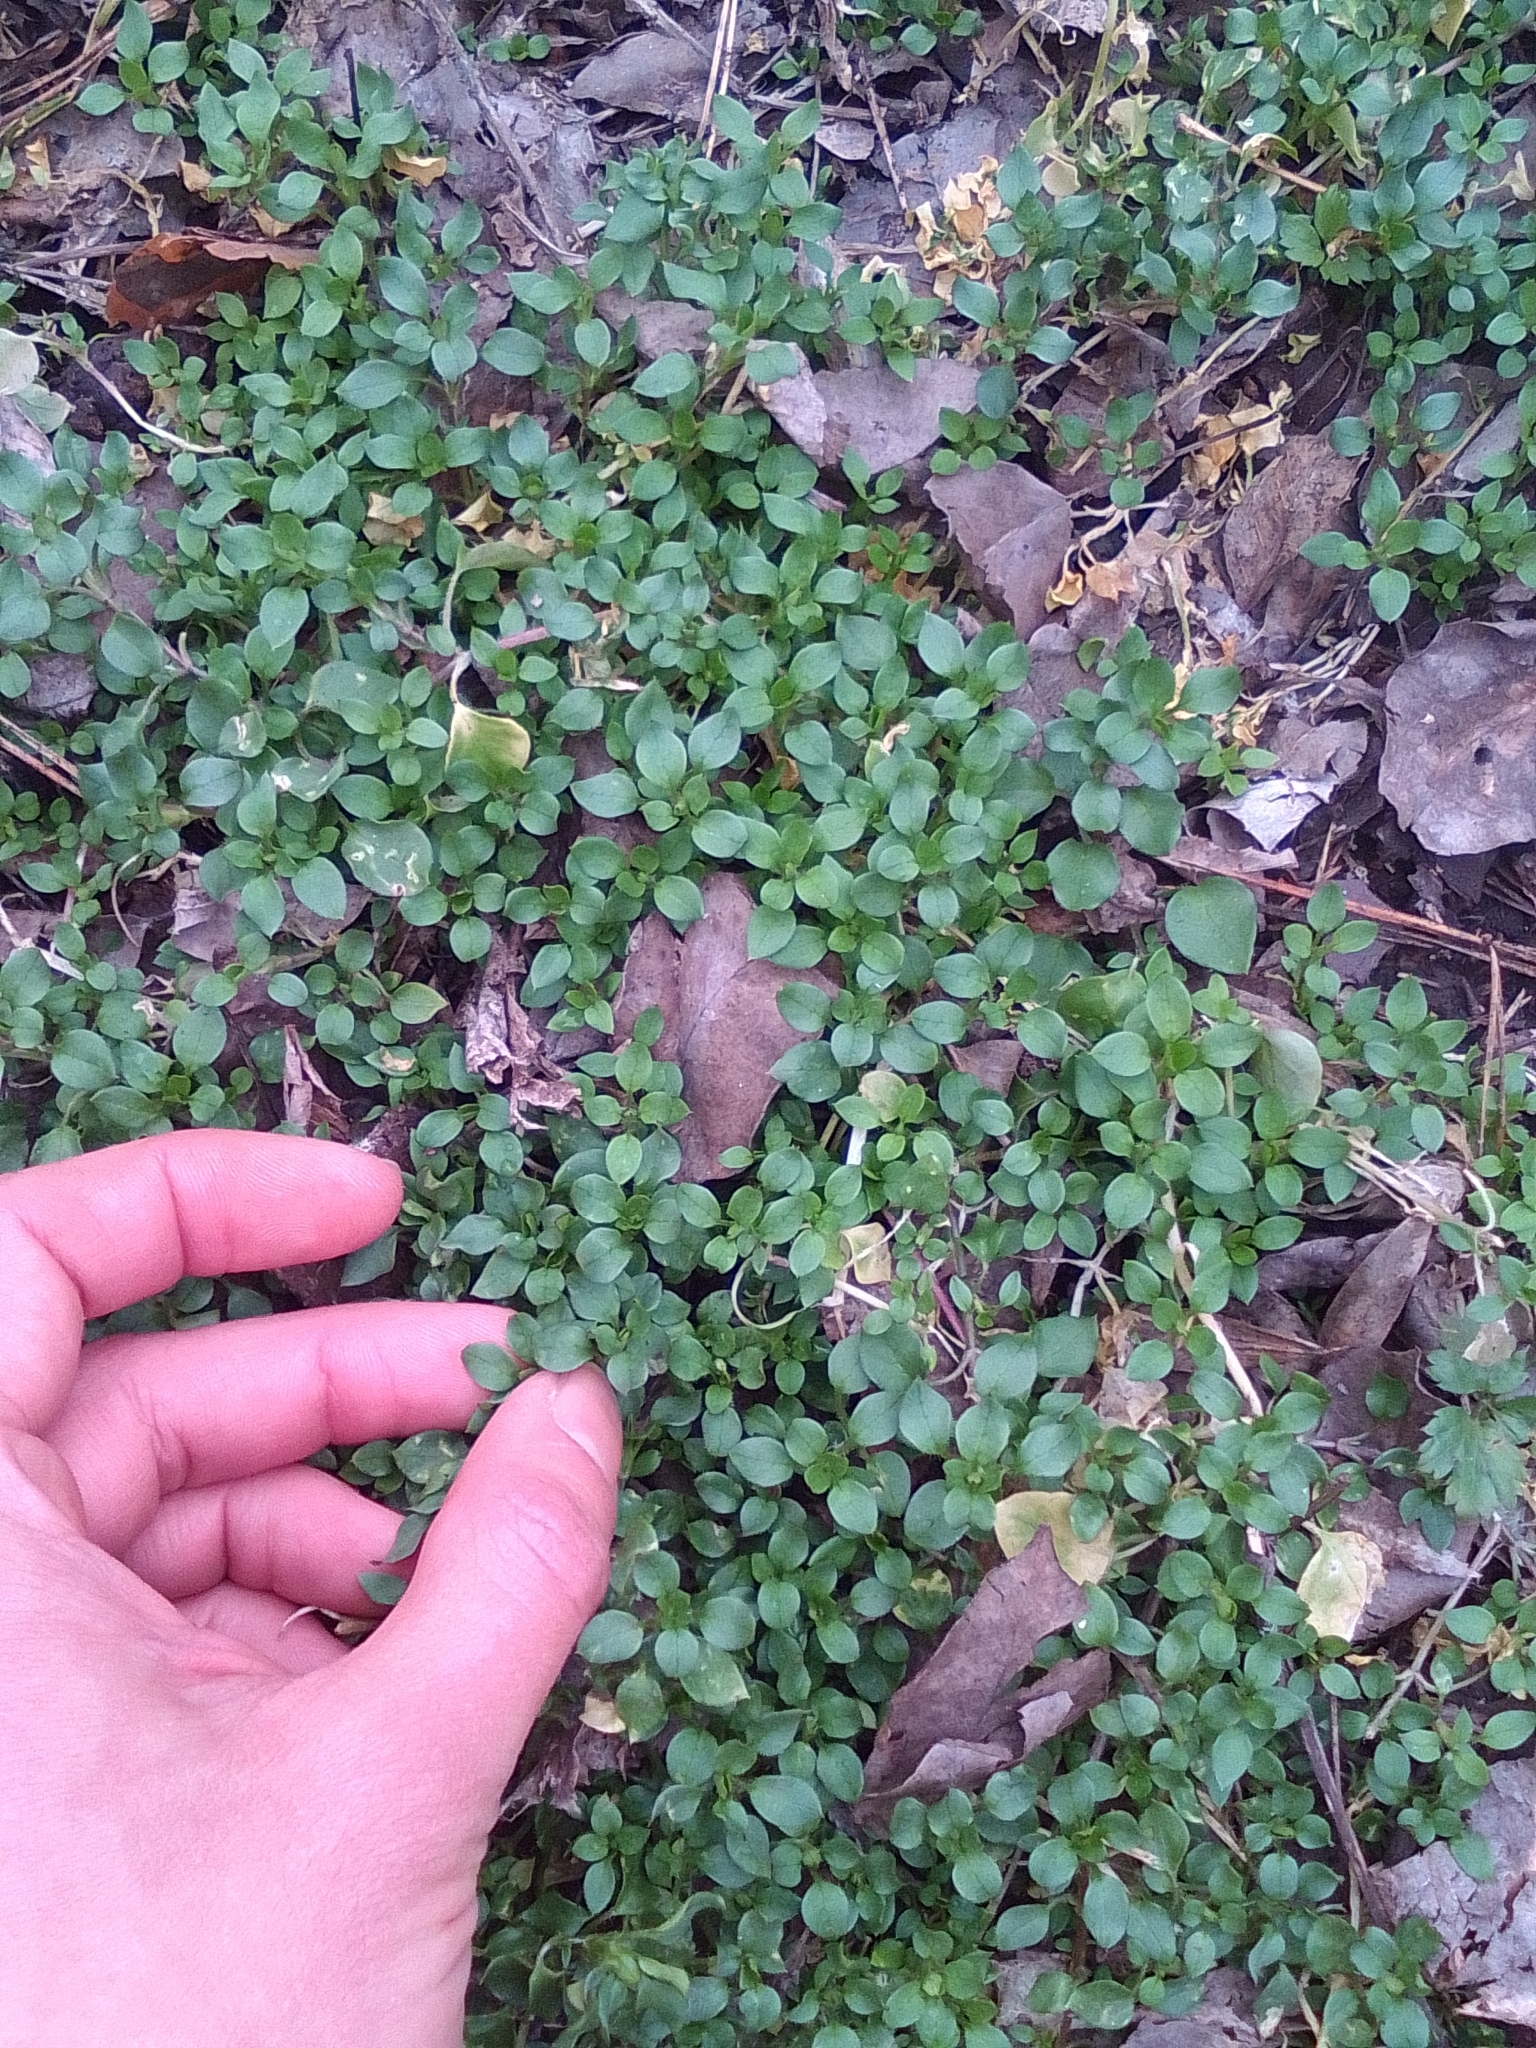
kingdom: Plantae
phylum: Tracheophyta
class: Magnoliopsida
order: Caryophyllales
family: Caryophyllaceae
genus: Stellaria
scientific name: Stellaria media
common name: Common chickweed
